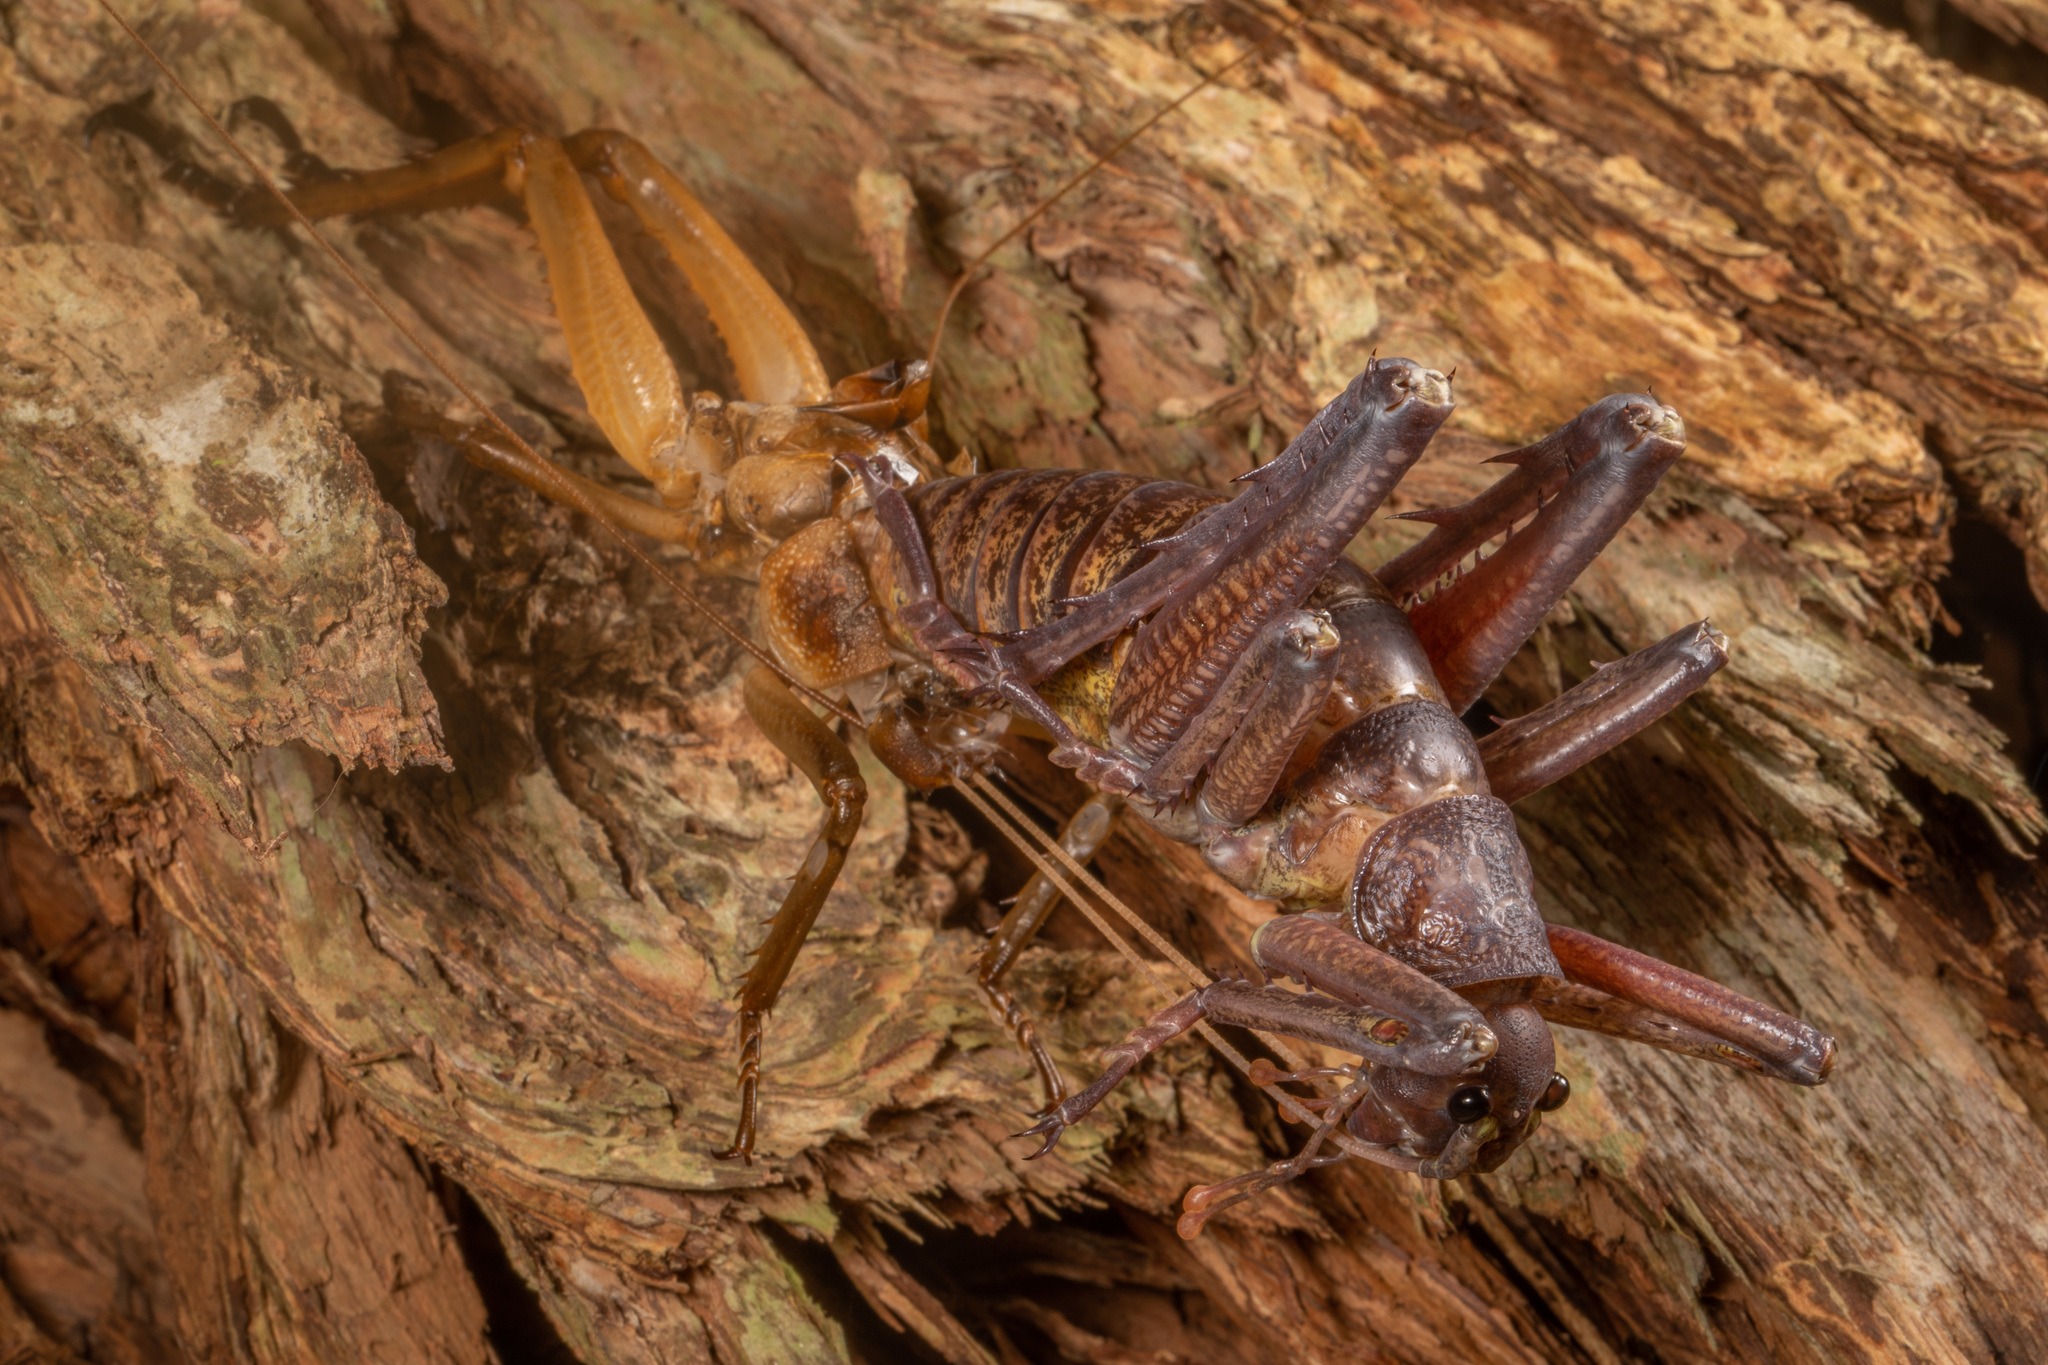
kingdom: Animalia
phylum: Arthropoda
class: Insecta
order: Orthoptera
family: Anostostomatidae
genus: Deinacrida
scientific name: Deinacrida heteracantha
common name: Wetapunga
